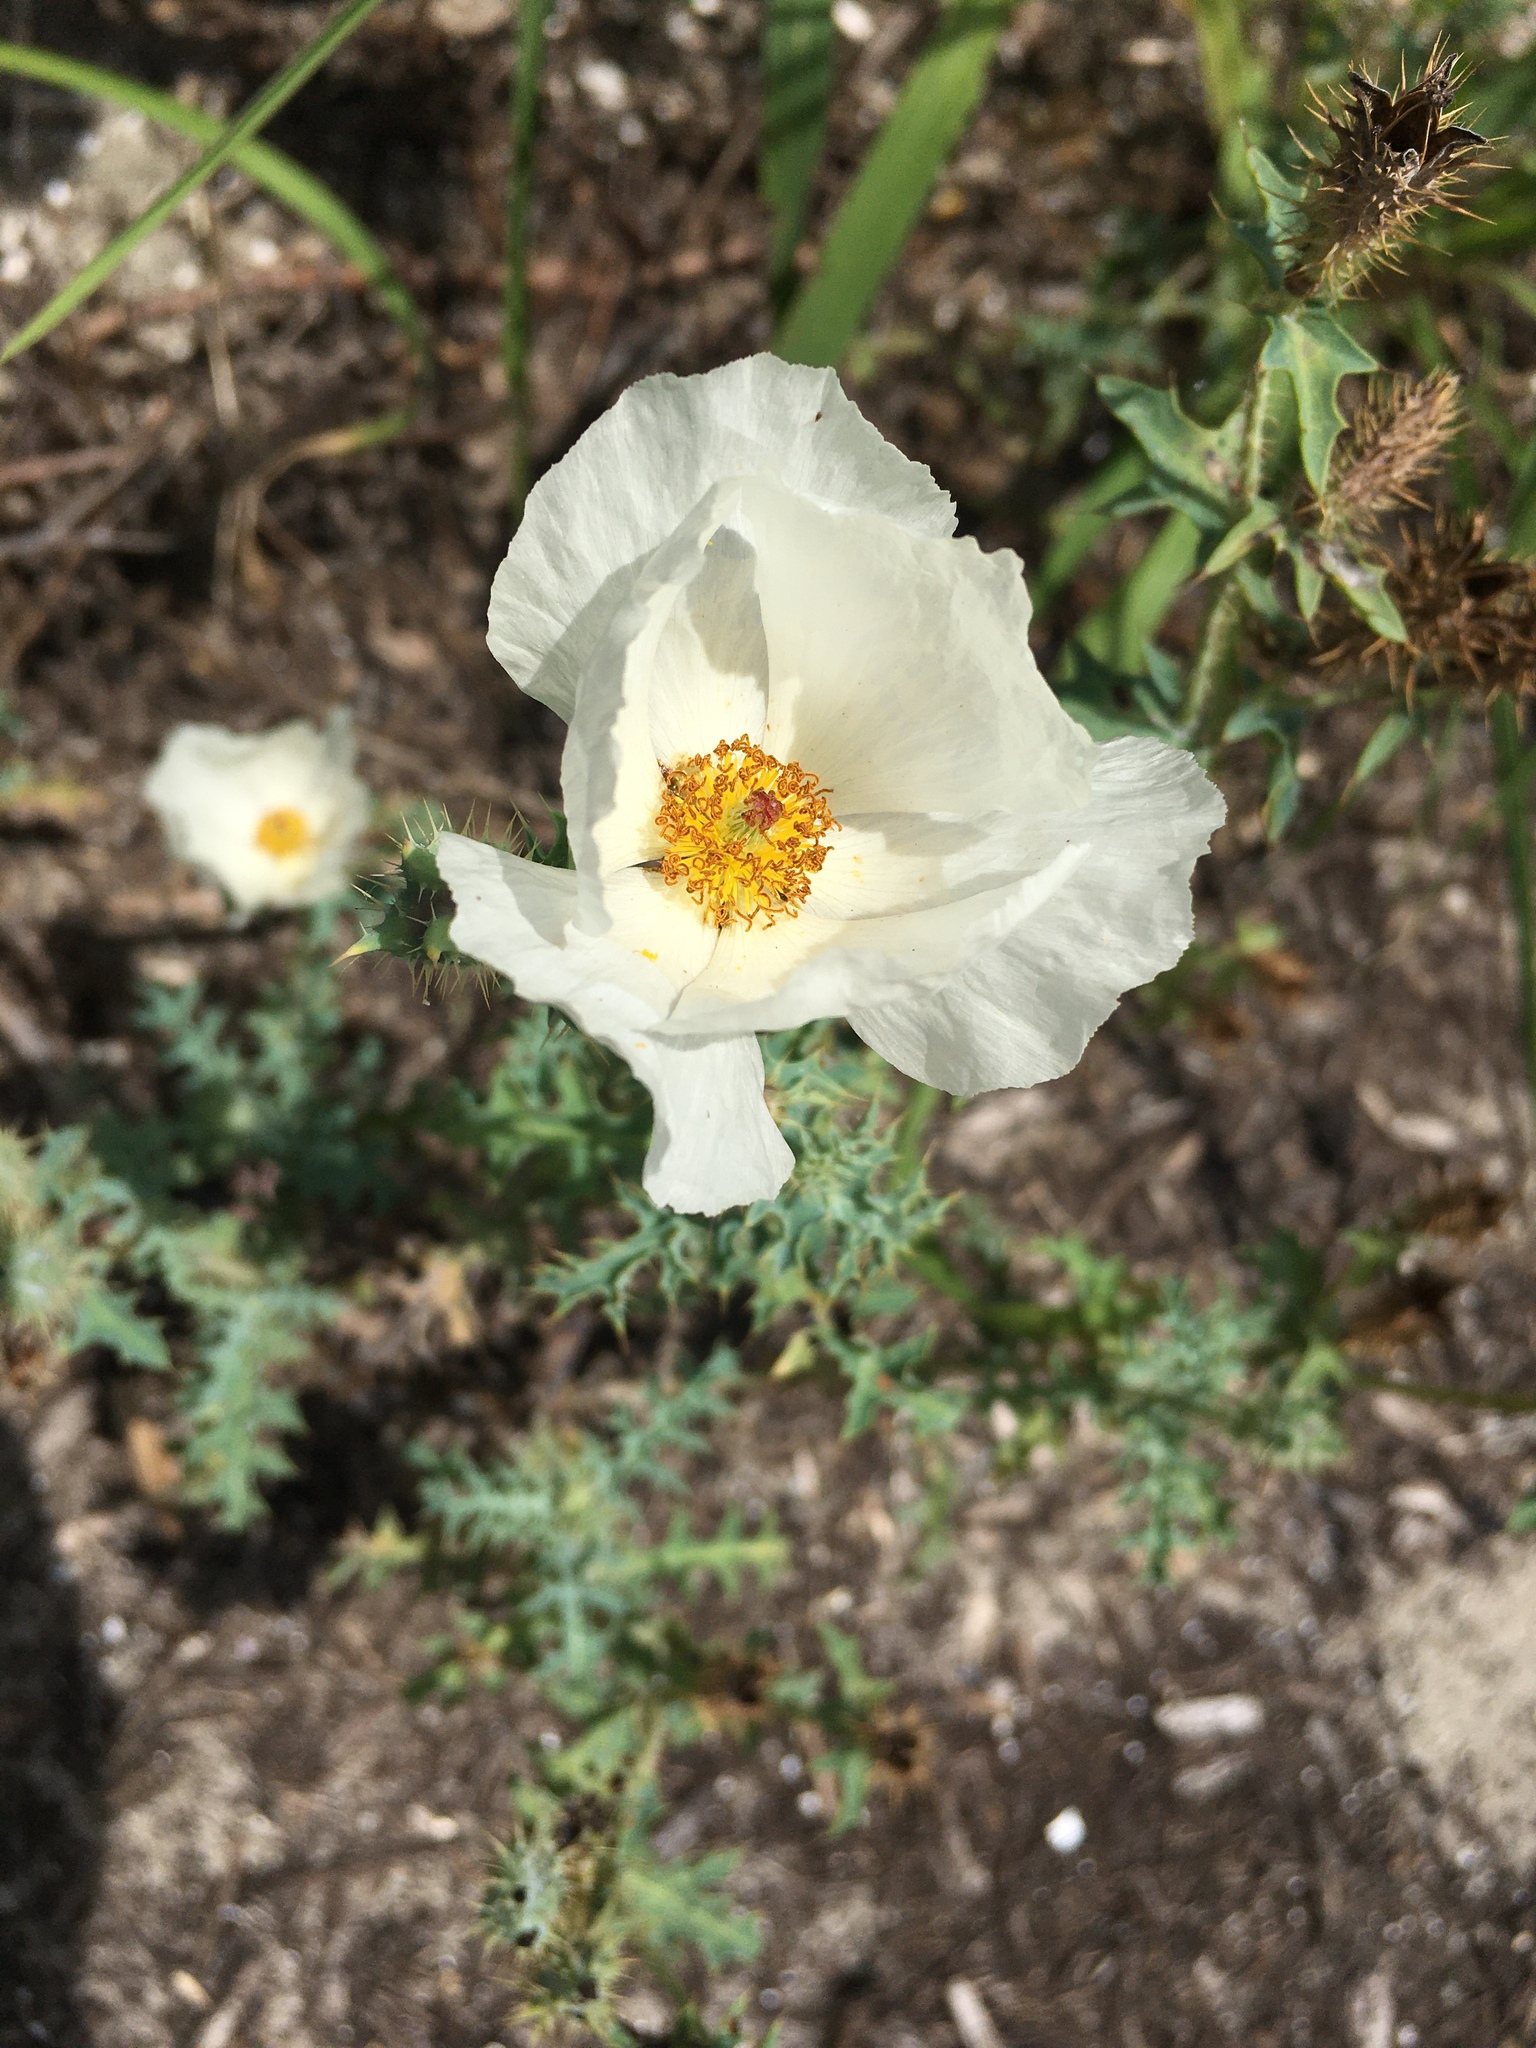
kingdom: Plantae
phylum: Tracheophyta
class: Magnoliopsida
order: Ranunculales
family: Papaveraceae
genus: Argemone
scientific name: Argemone albiflora
